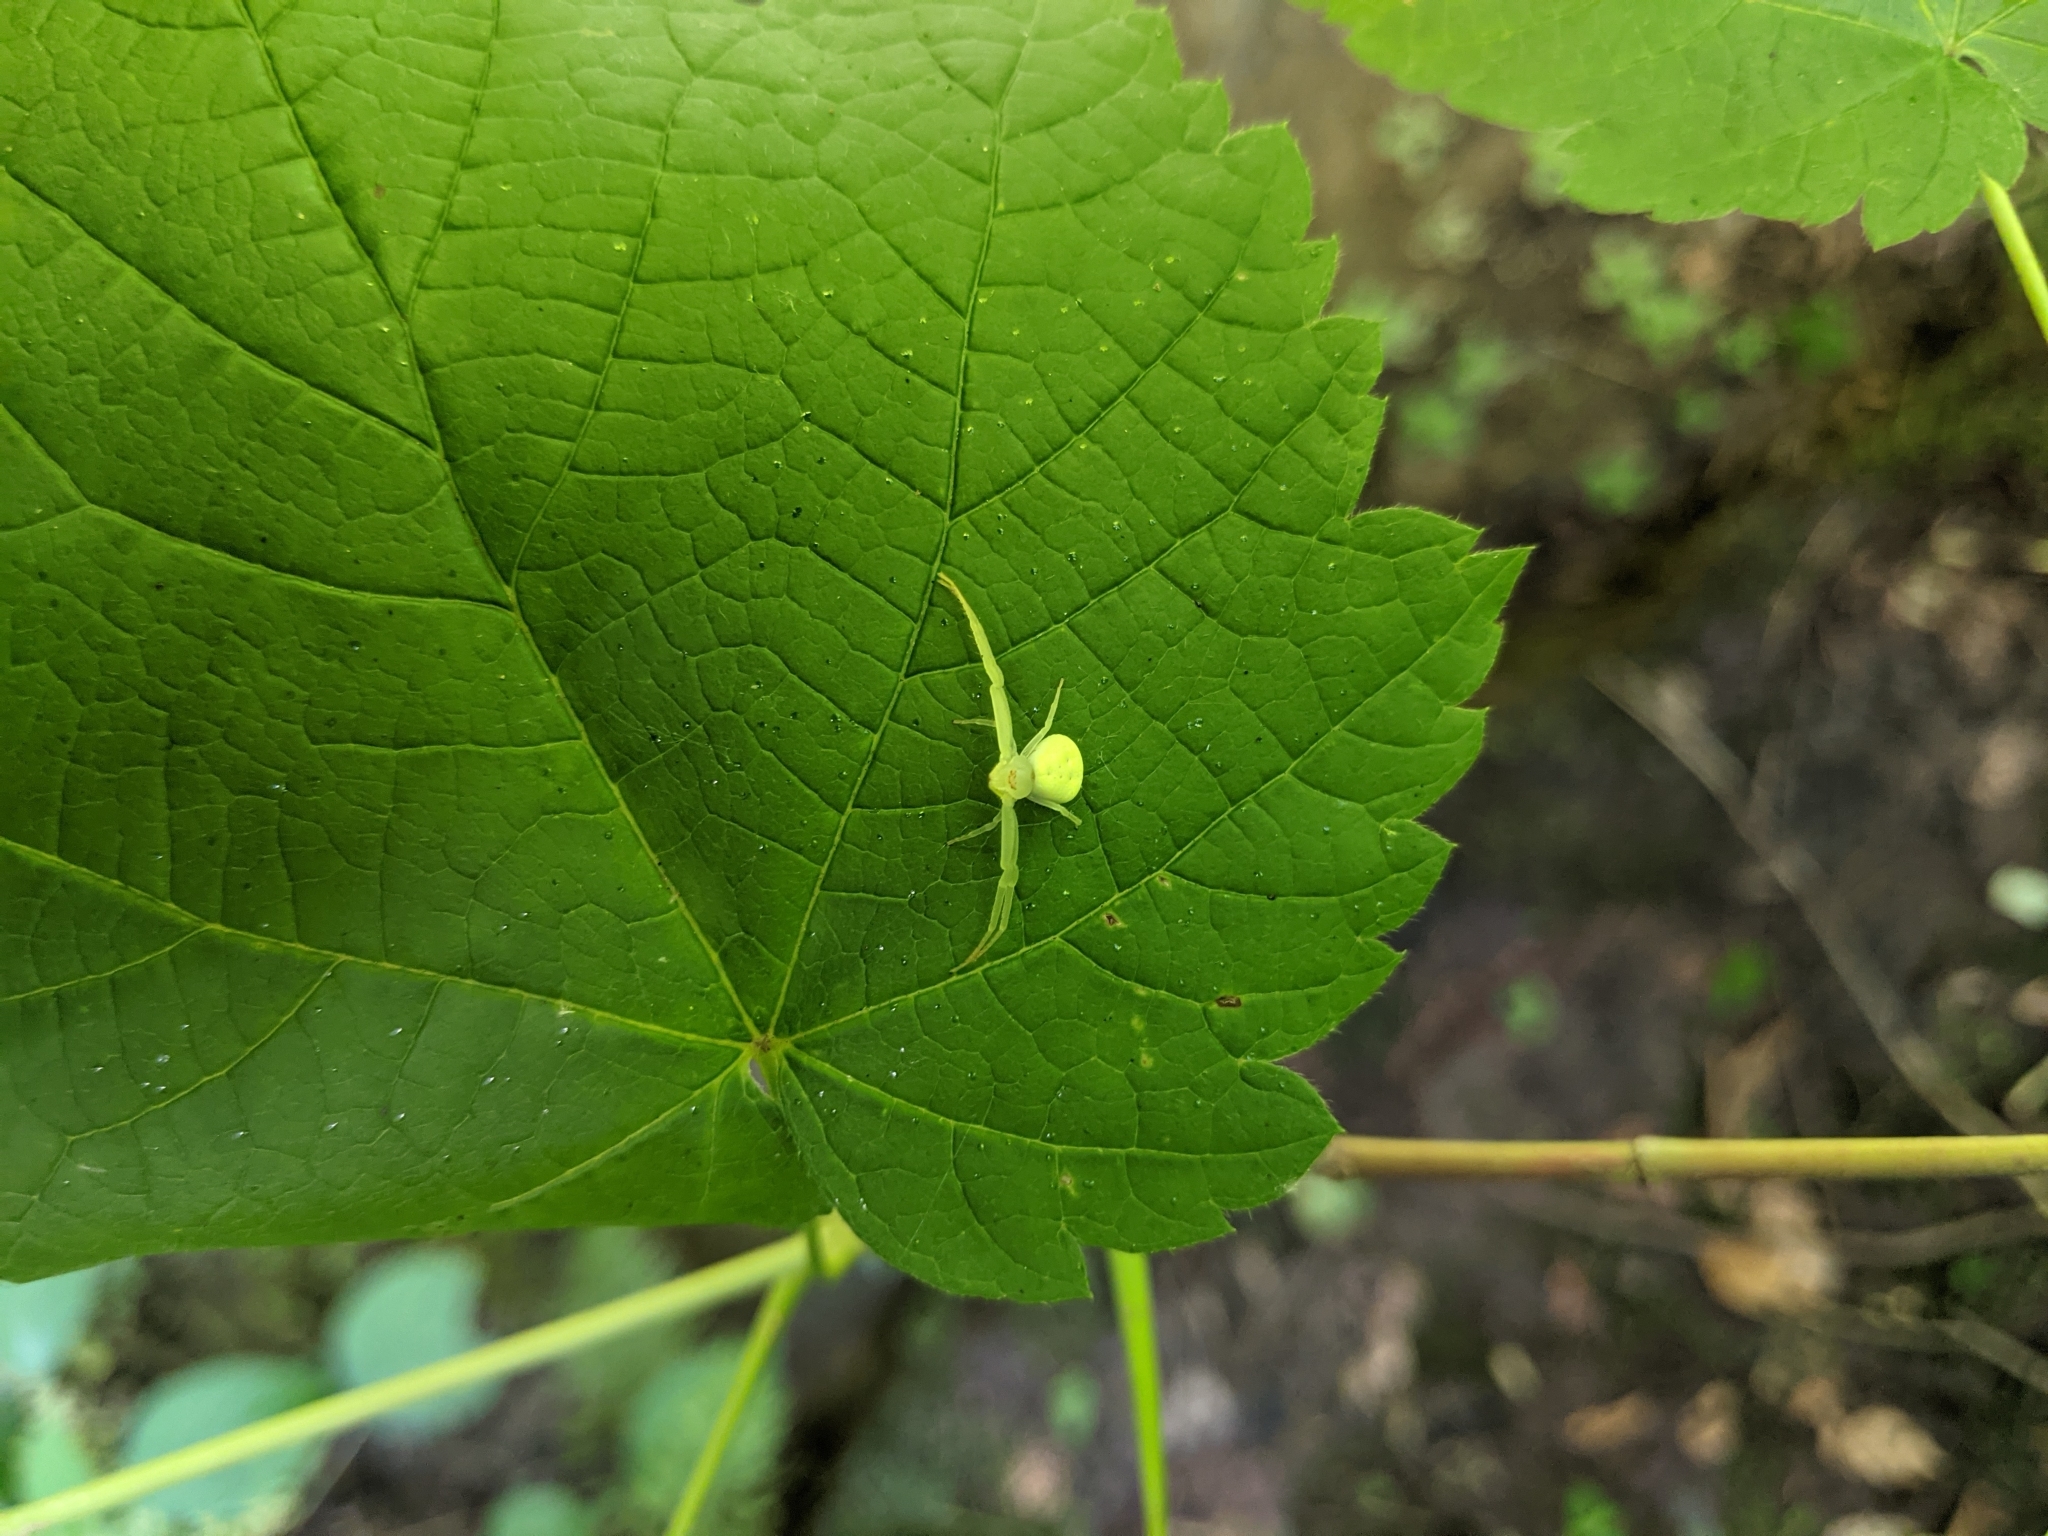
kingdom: Animalia
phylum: Arthropoda
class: Arachnida
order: Araneae
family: Thomisidae
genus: Misumessus
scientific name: Misumessus oblongus
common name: American green crab spider
